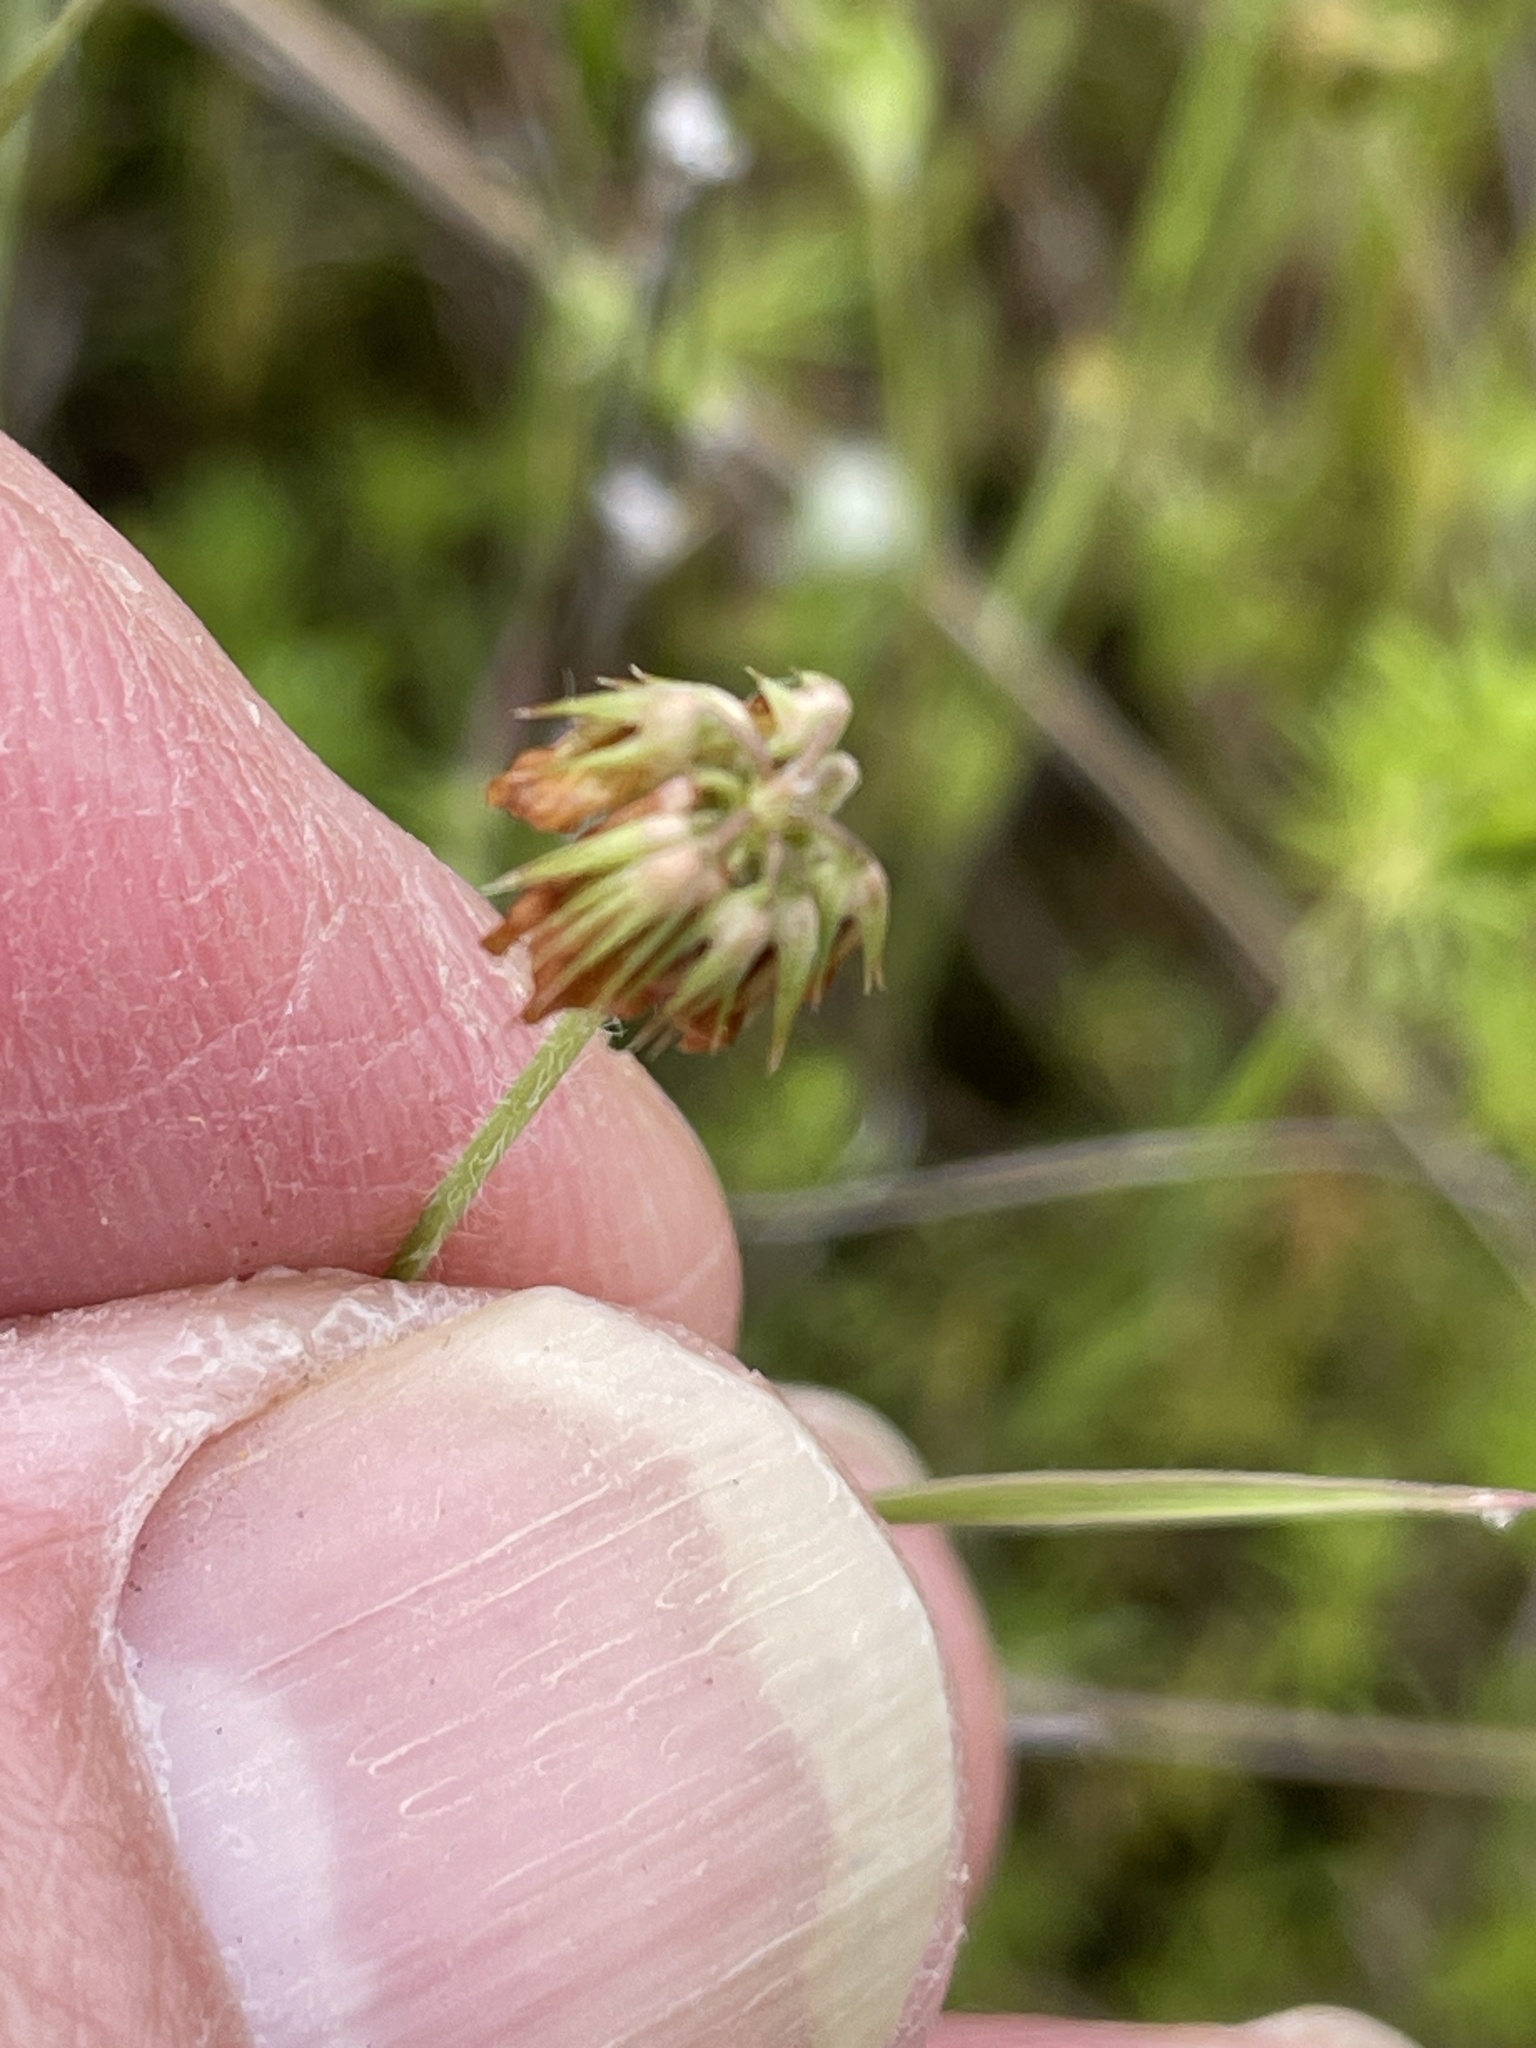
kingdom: Plantae
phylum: Tracheophyta
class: Magnoliopsida
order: Fabales
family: Fabaceae
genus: Trifolium
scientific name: Trifolium bifidum
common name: Notch-leaf clover
